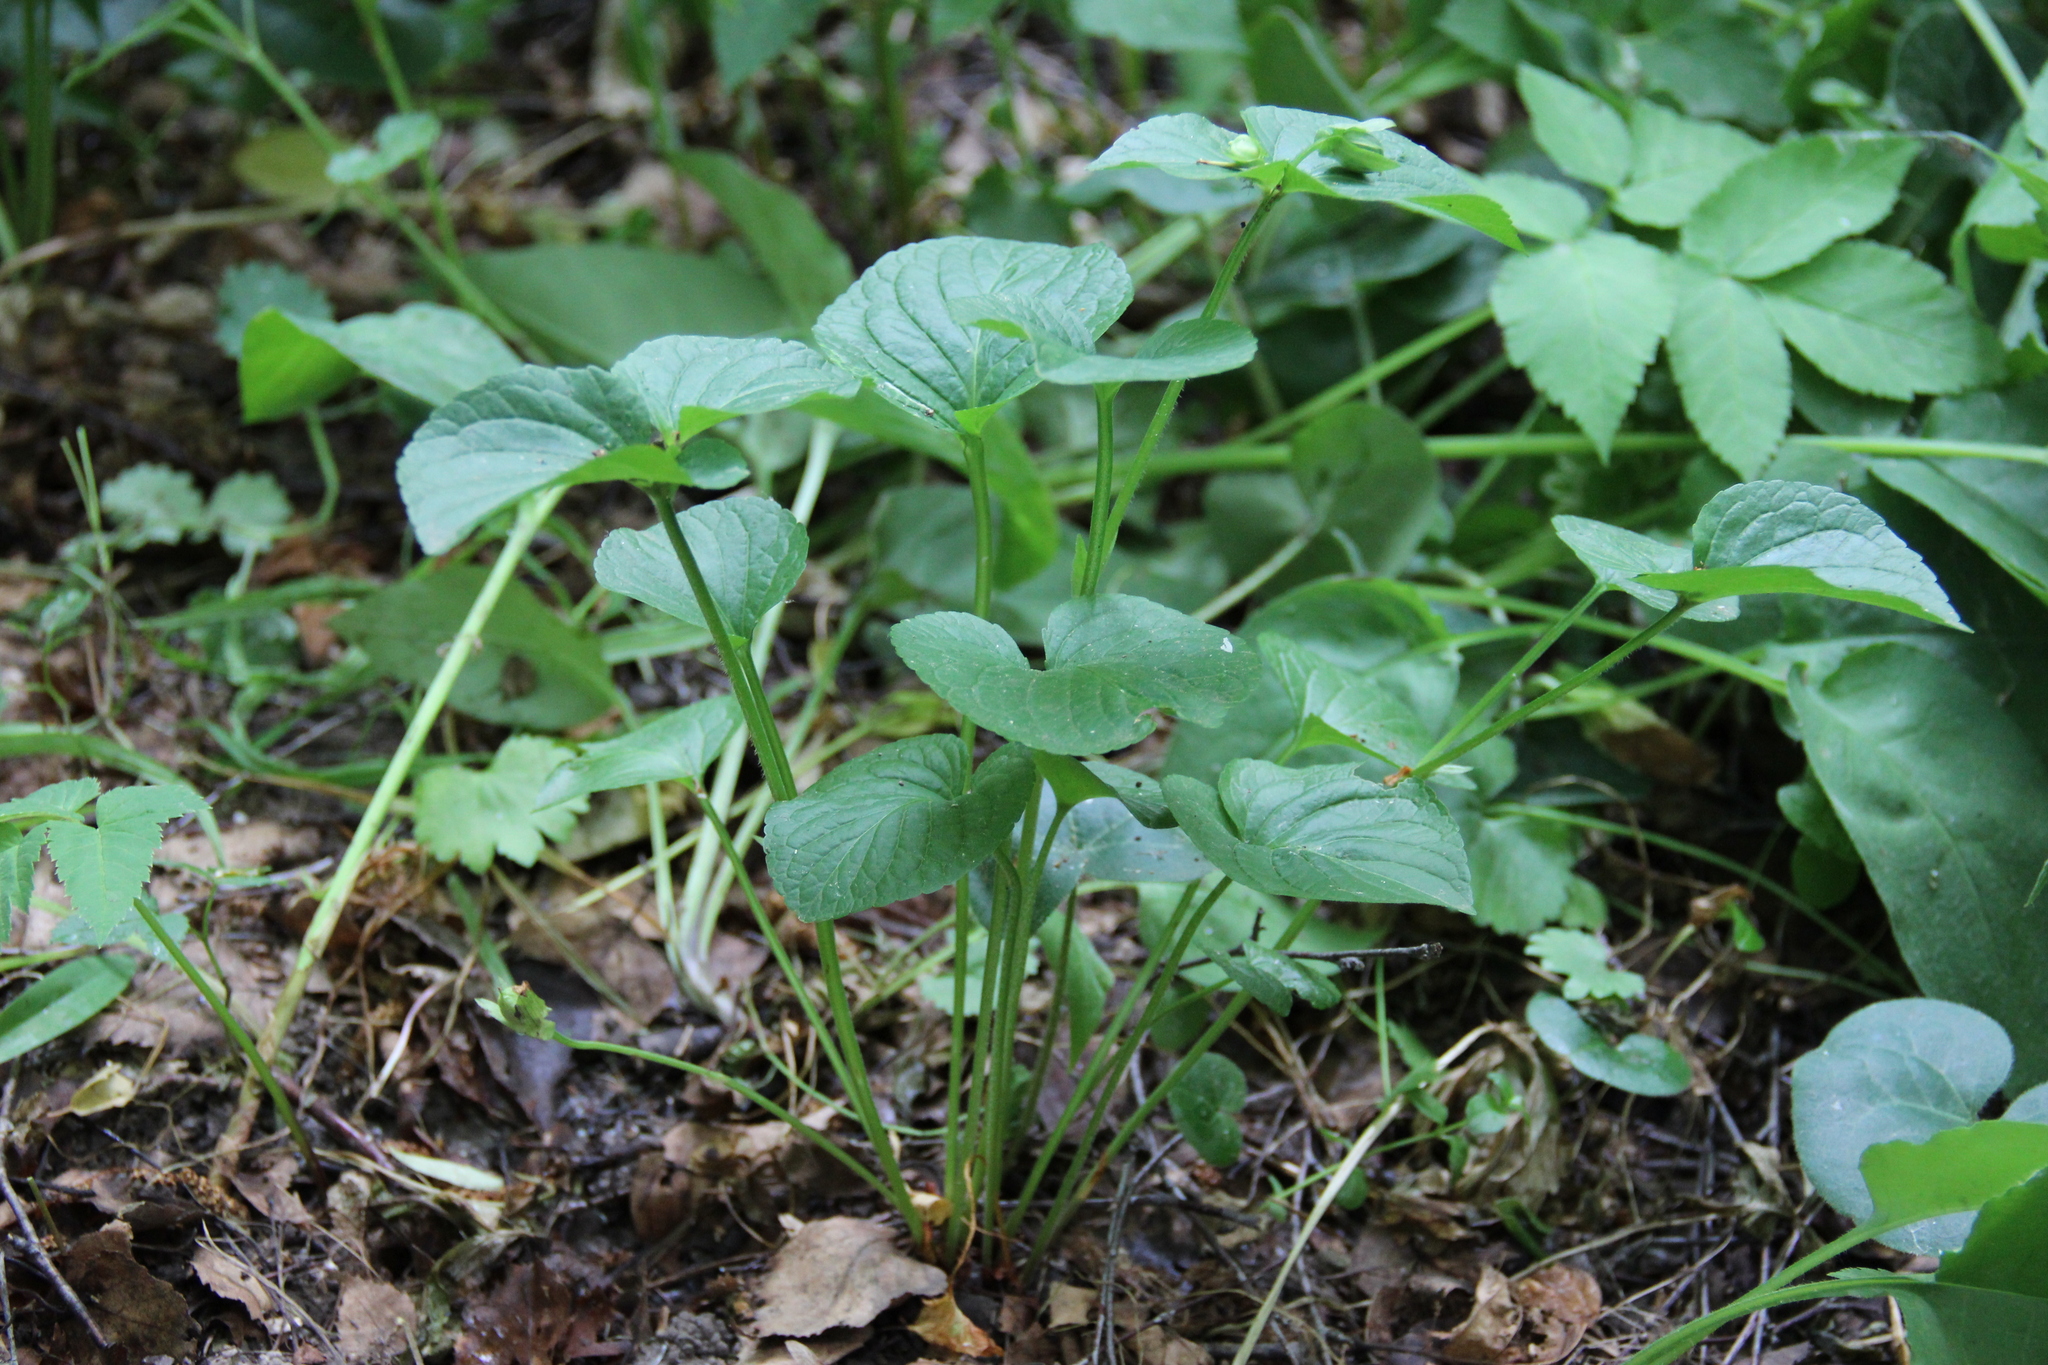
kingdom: Plantae
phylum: Tracheophyta
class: Magnoliopsida
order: Malpighiales
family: Violaceae
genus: Viola
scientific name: Viola mirabilis
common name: Wonder violet
